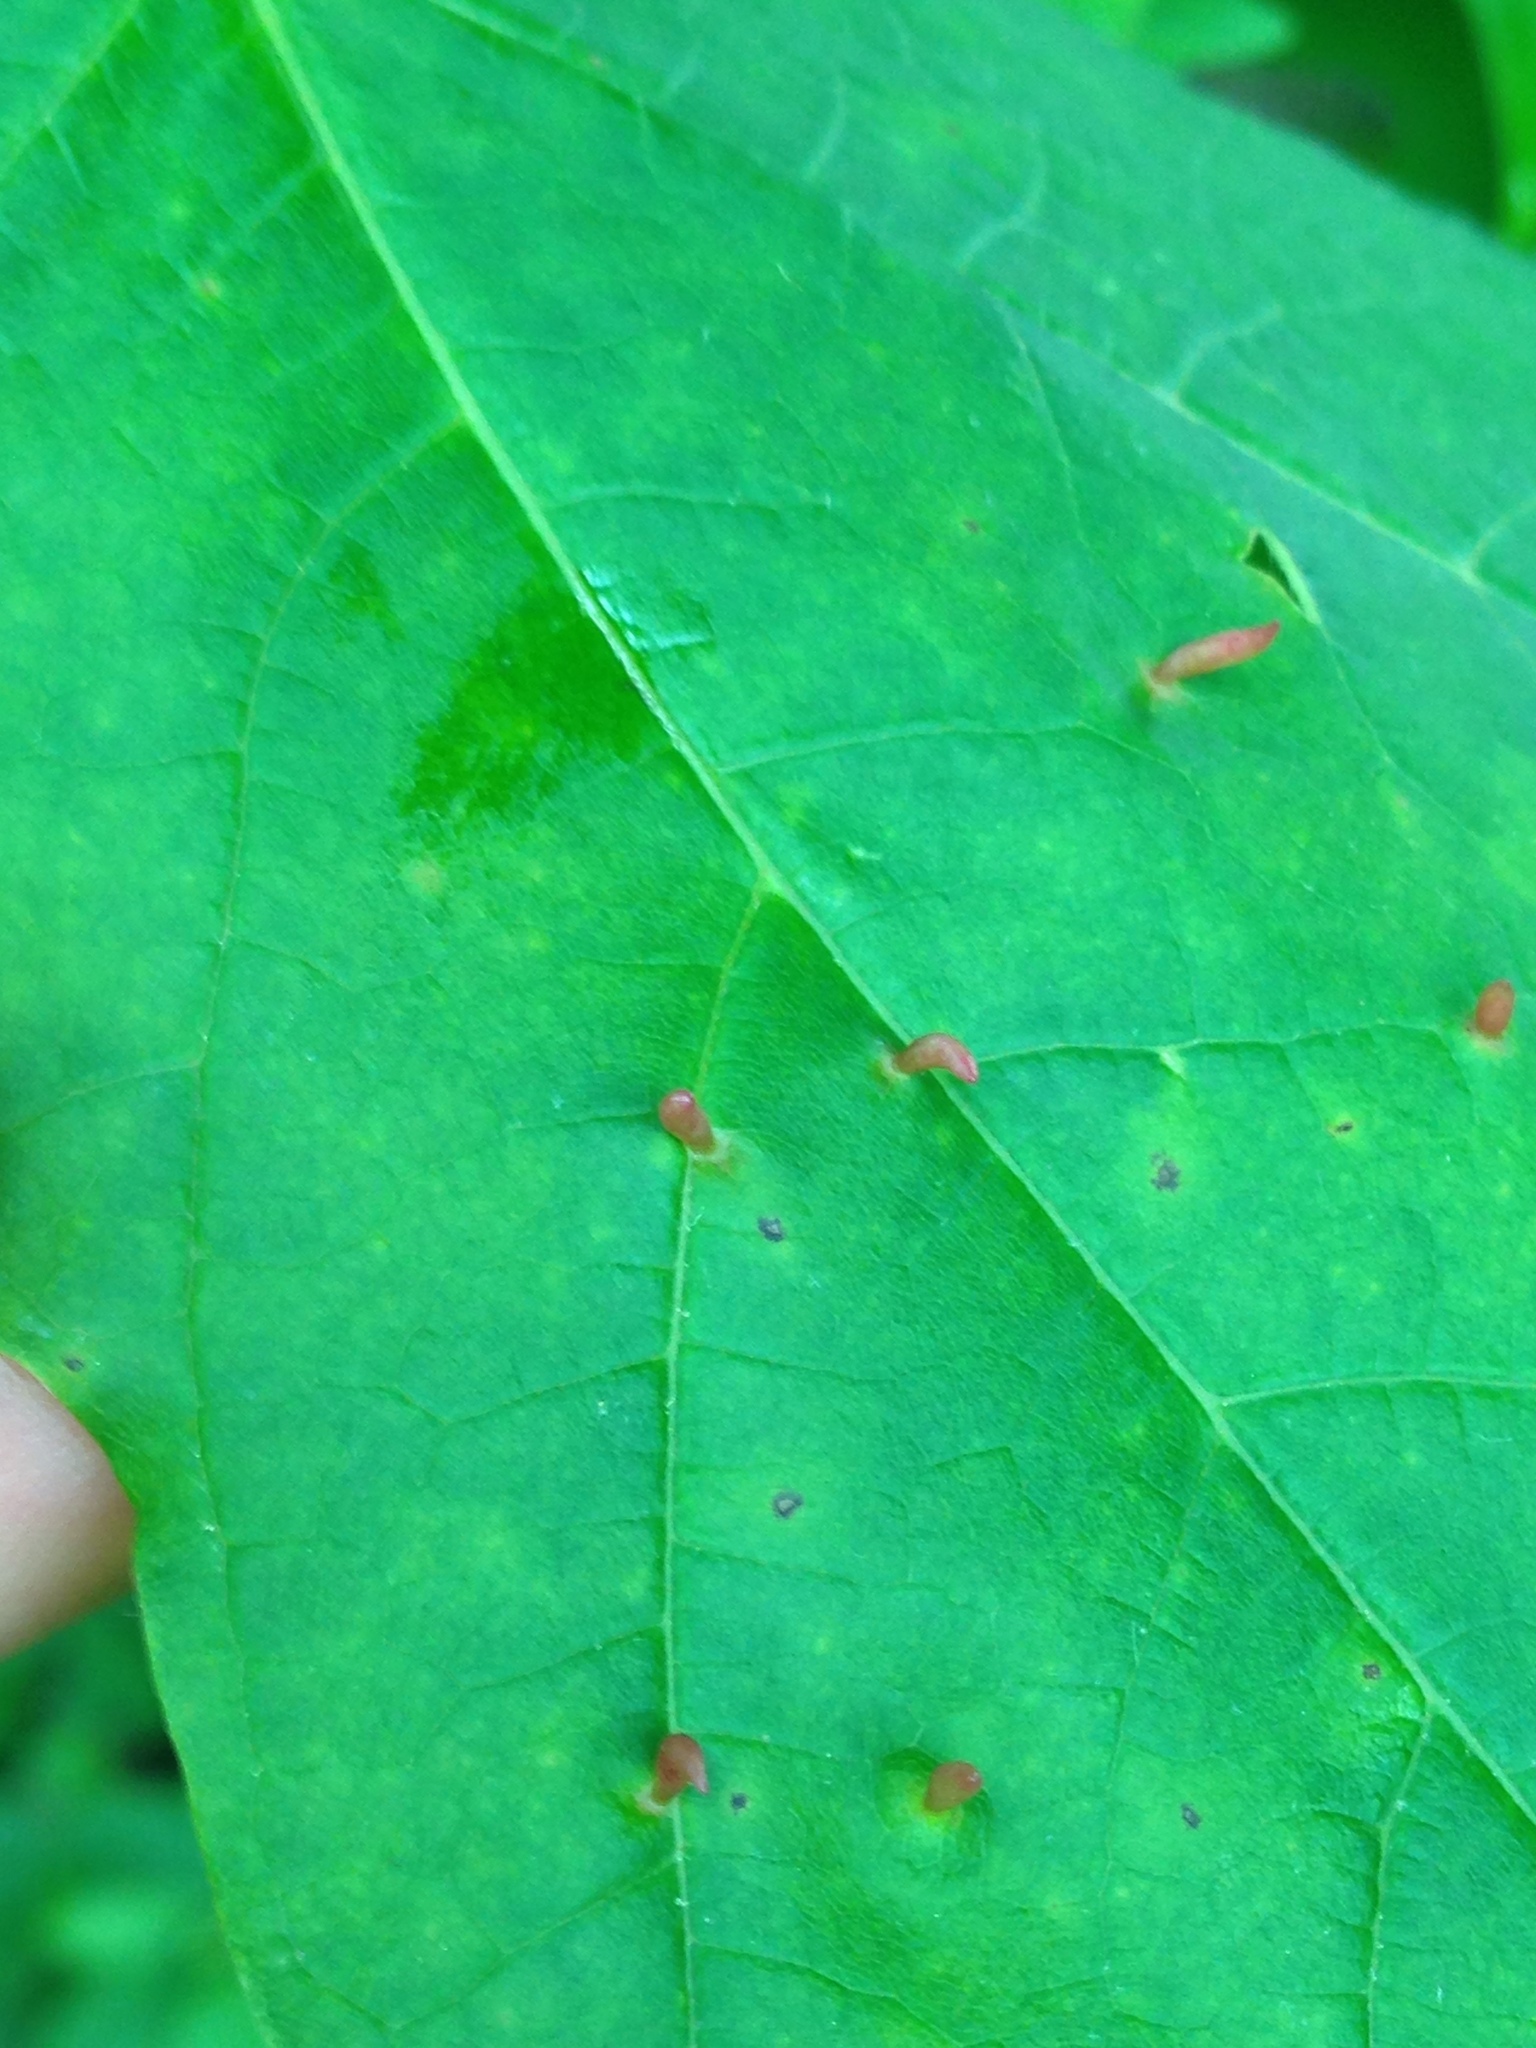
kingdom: Animalia
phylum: Arthropoda
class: Arachnida
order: Trombidiformes
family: Eriophyidae
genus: Vasates
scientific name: Vasates aceriscrumena
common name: Maple spindle gall mite
